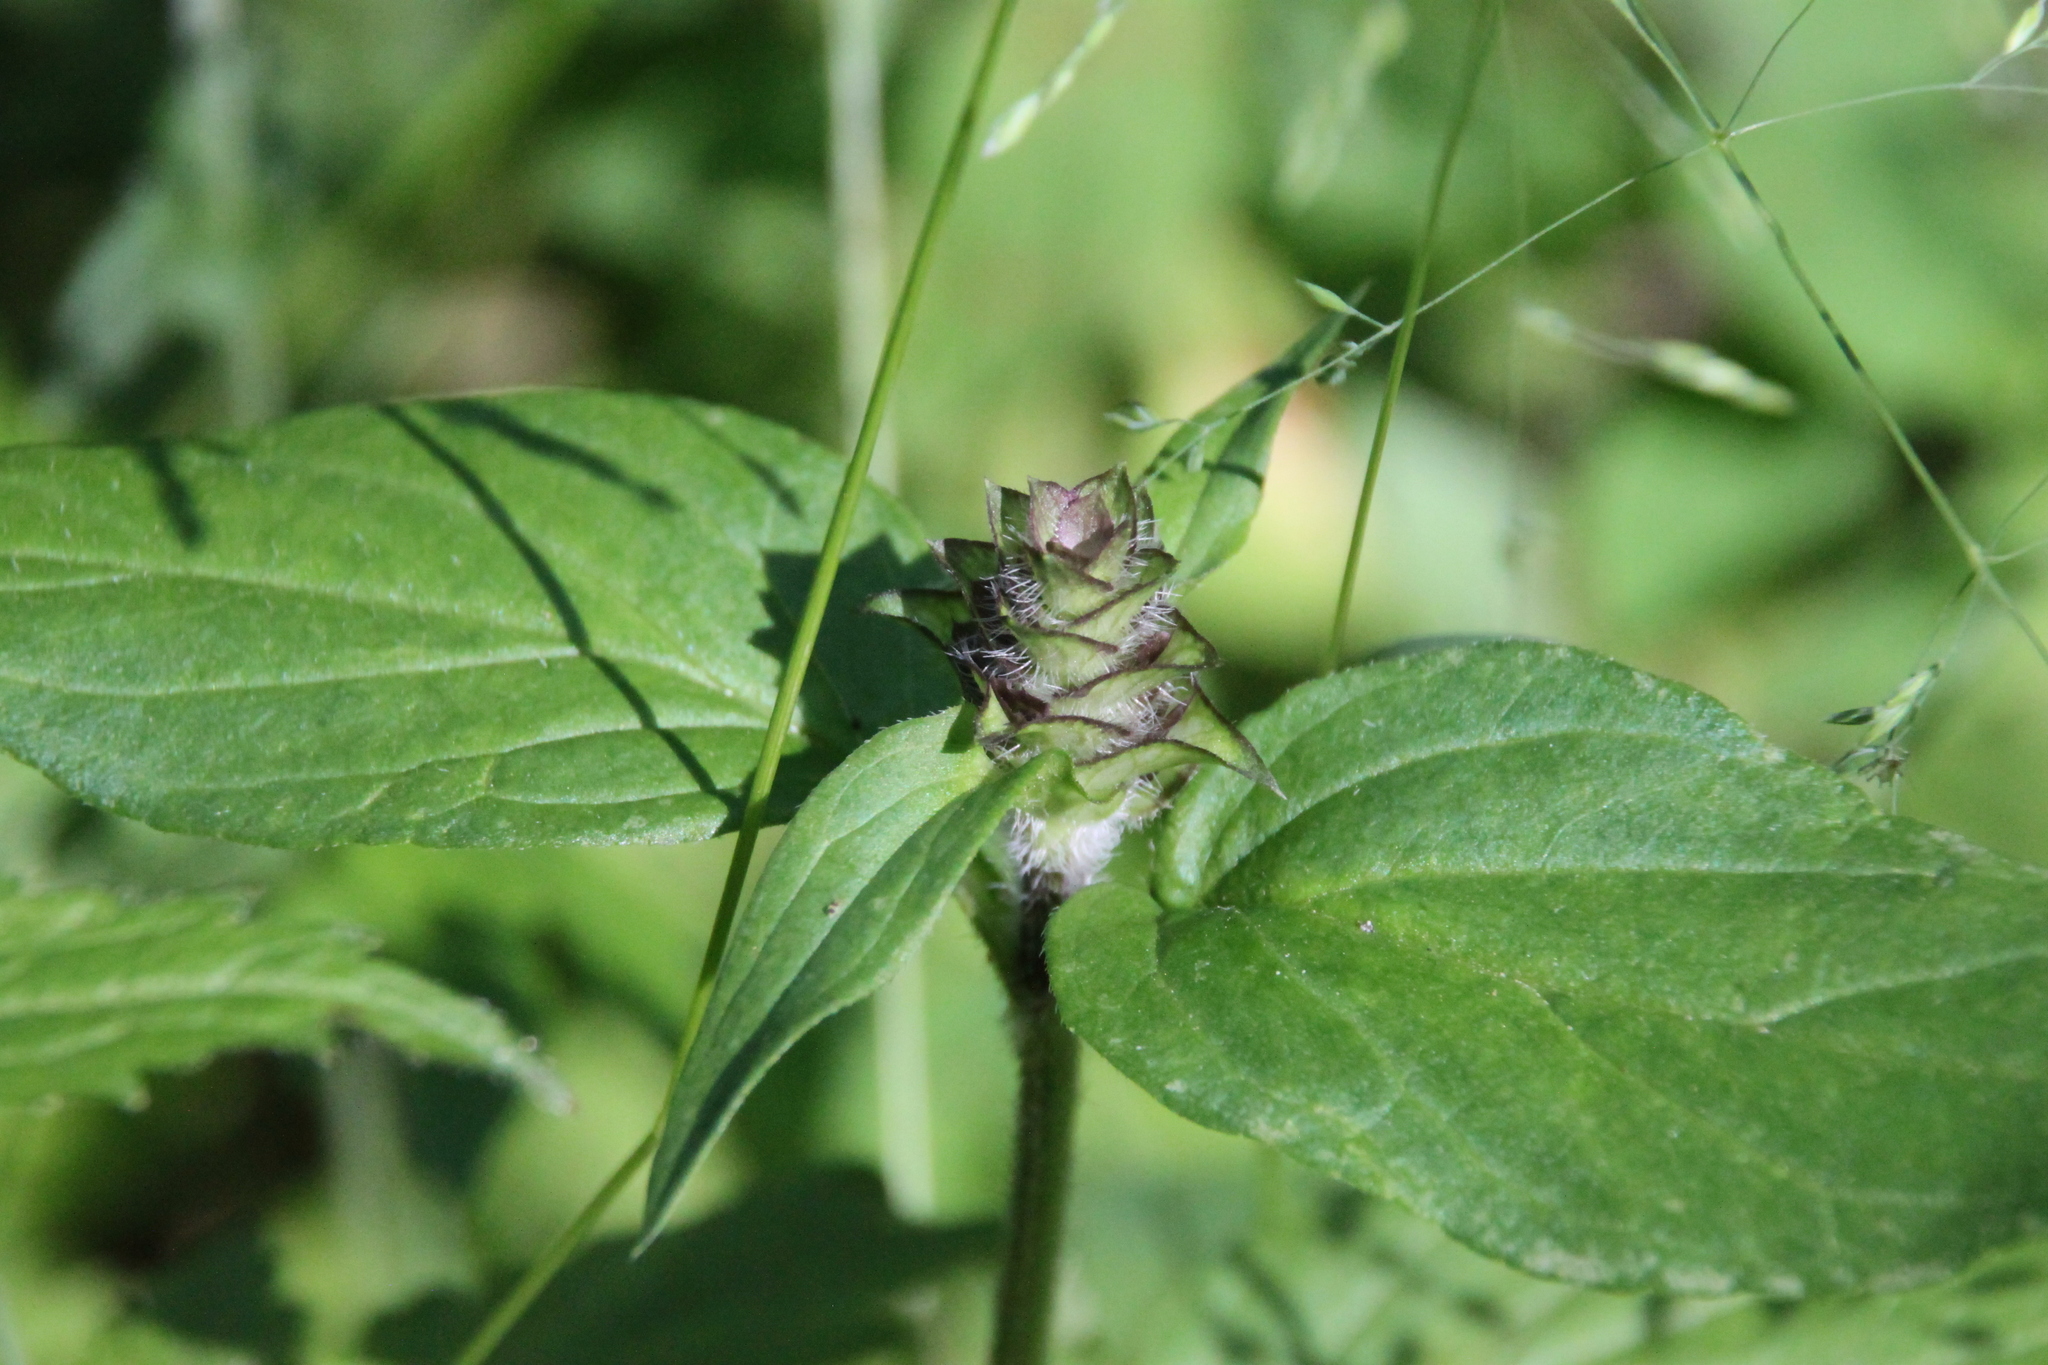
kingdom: Plantae
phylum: Tracheophyta
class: Magnoliopsida
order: Lamiales
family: Lamiaceae
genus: Prunella
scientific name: Prunella vulgaris
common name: Heal-all
